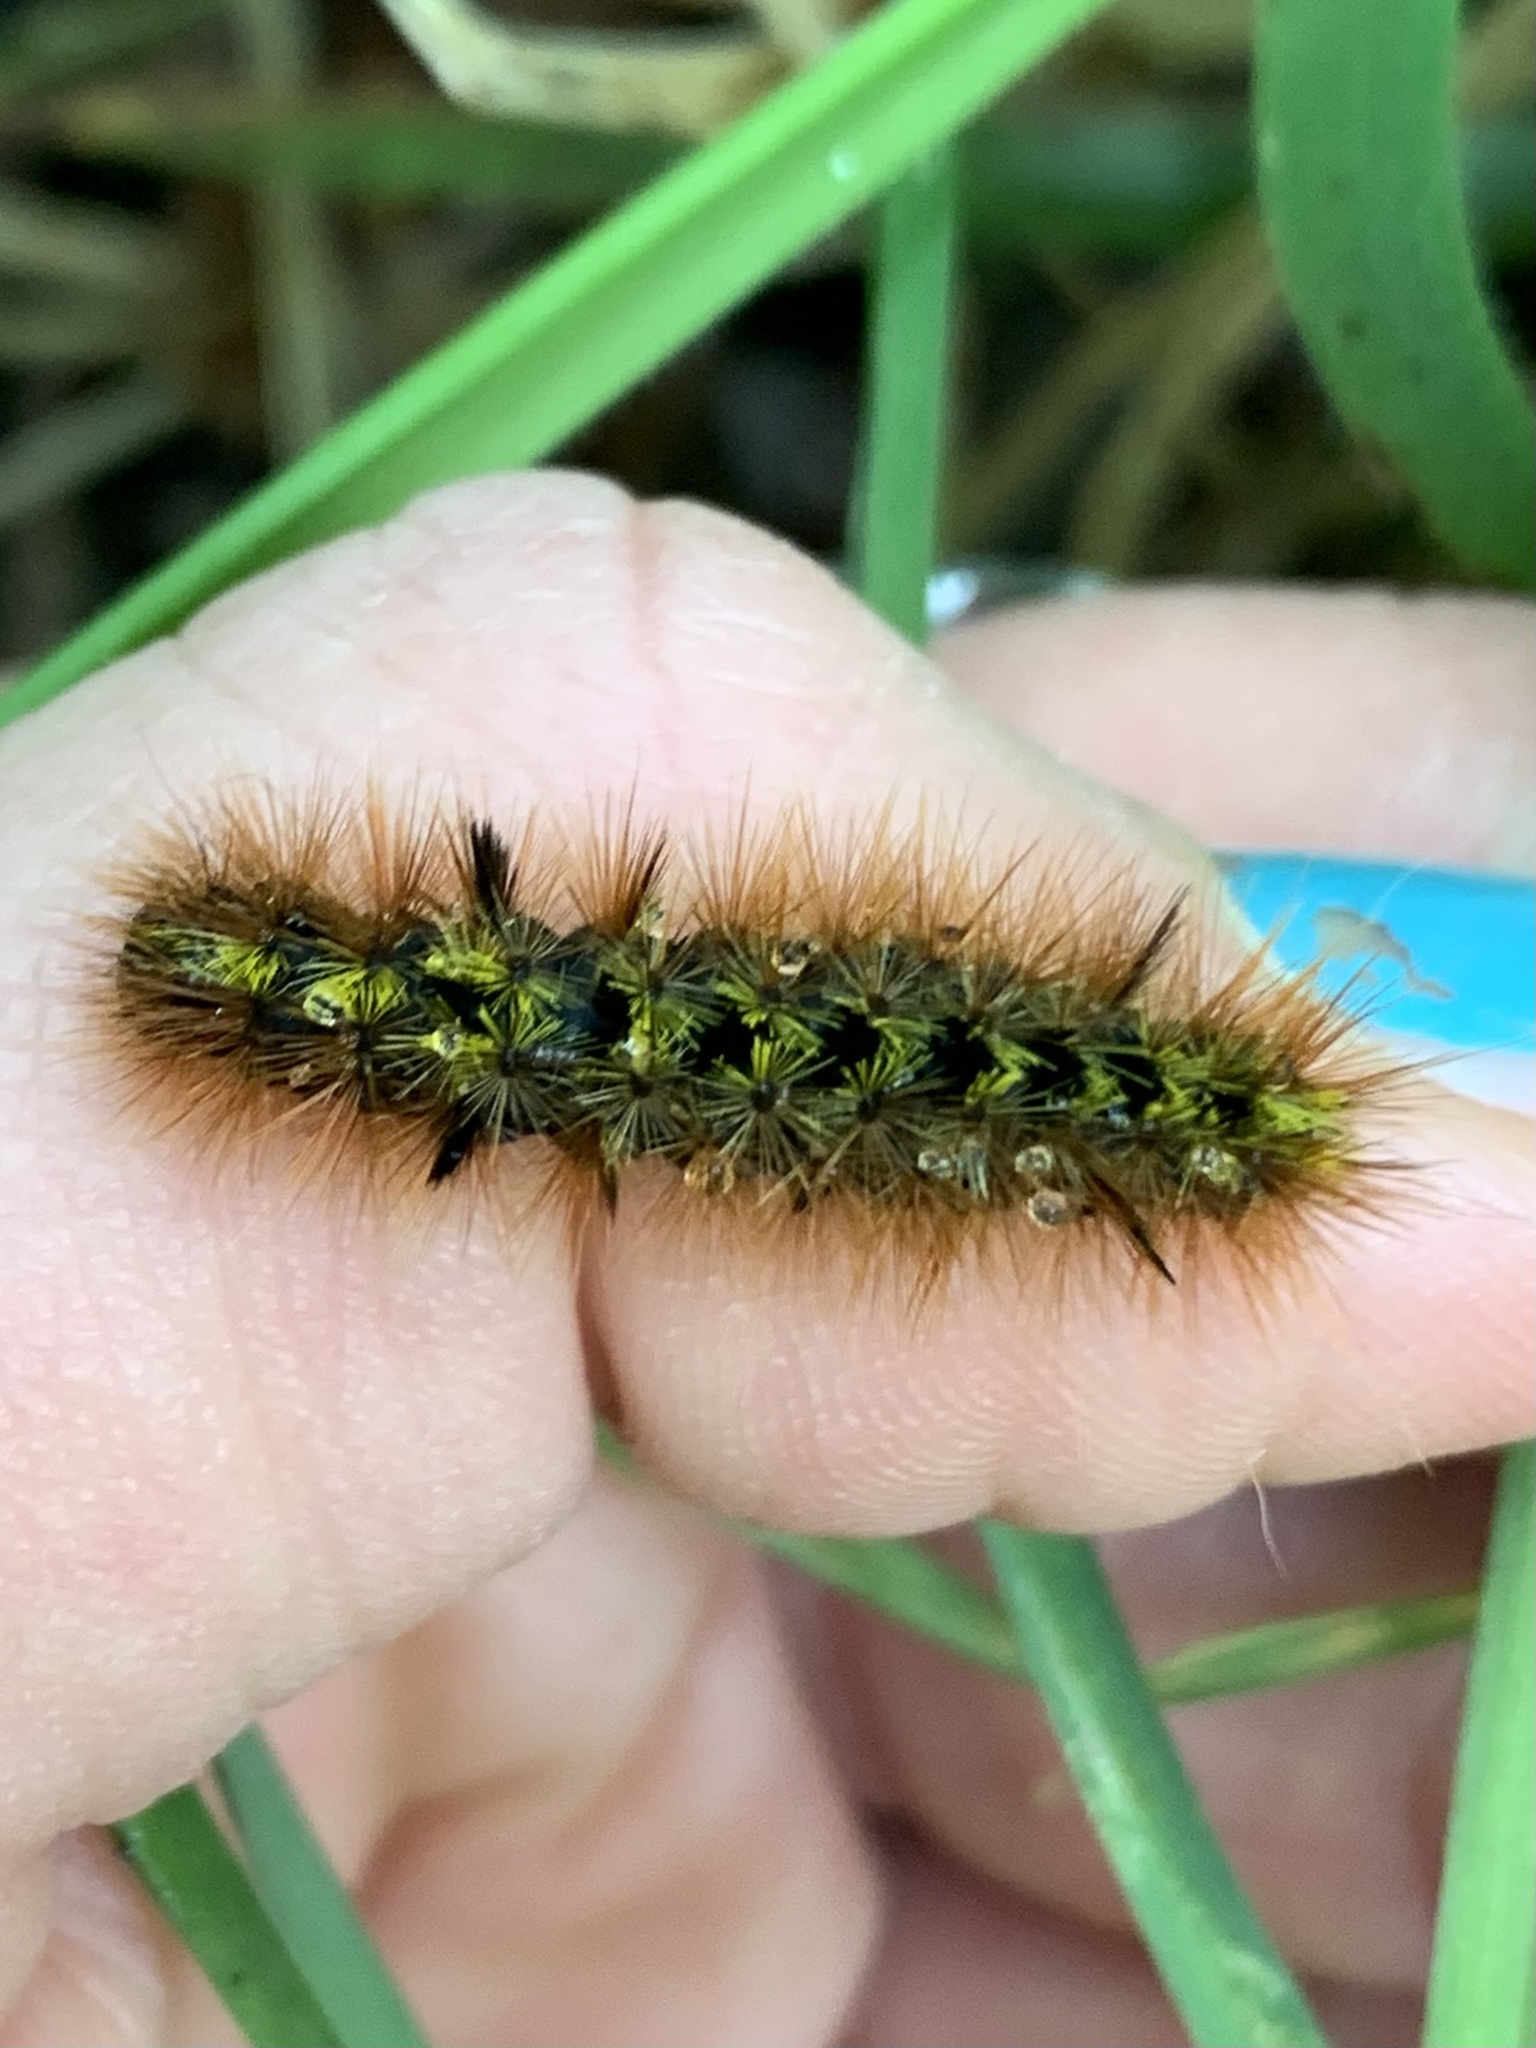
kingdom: Animalia
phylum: Arthropoda
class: Insecta
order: Lepidoptera
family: Erebidae
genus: Lophocampa
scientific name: Lophocampa argentata
